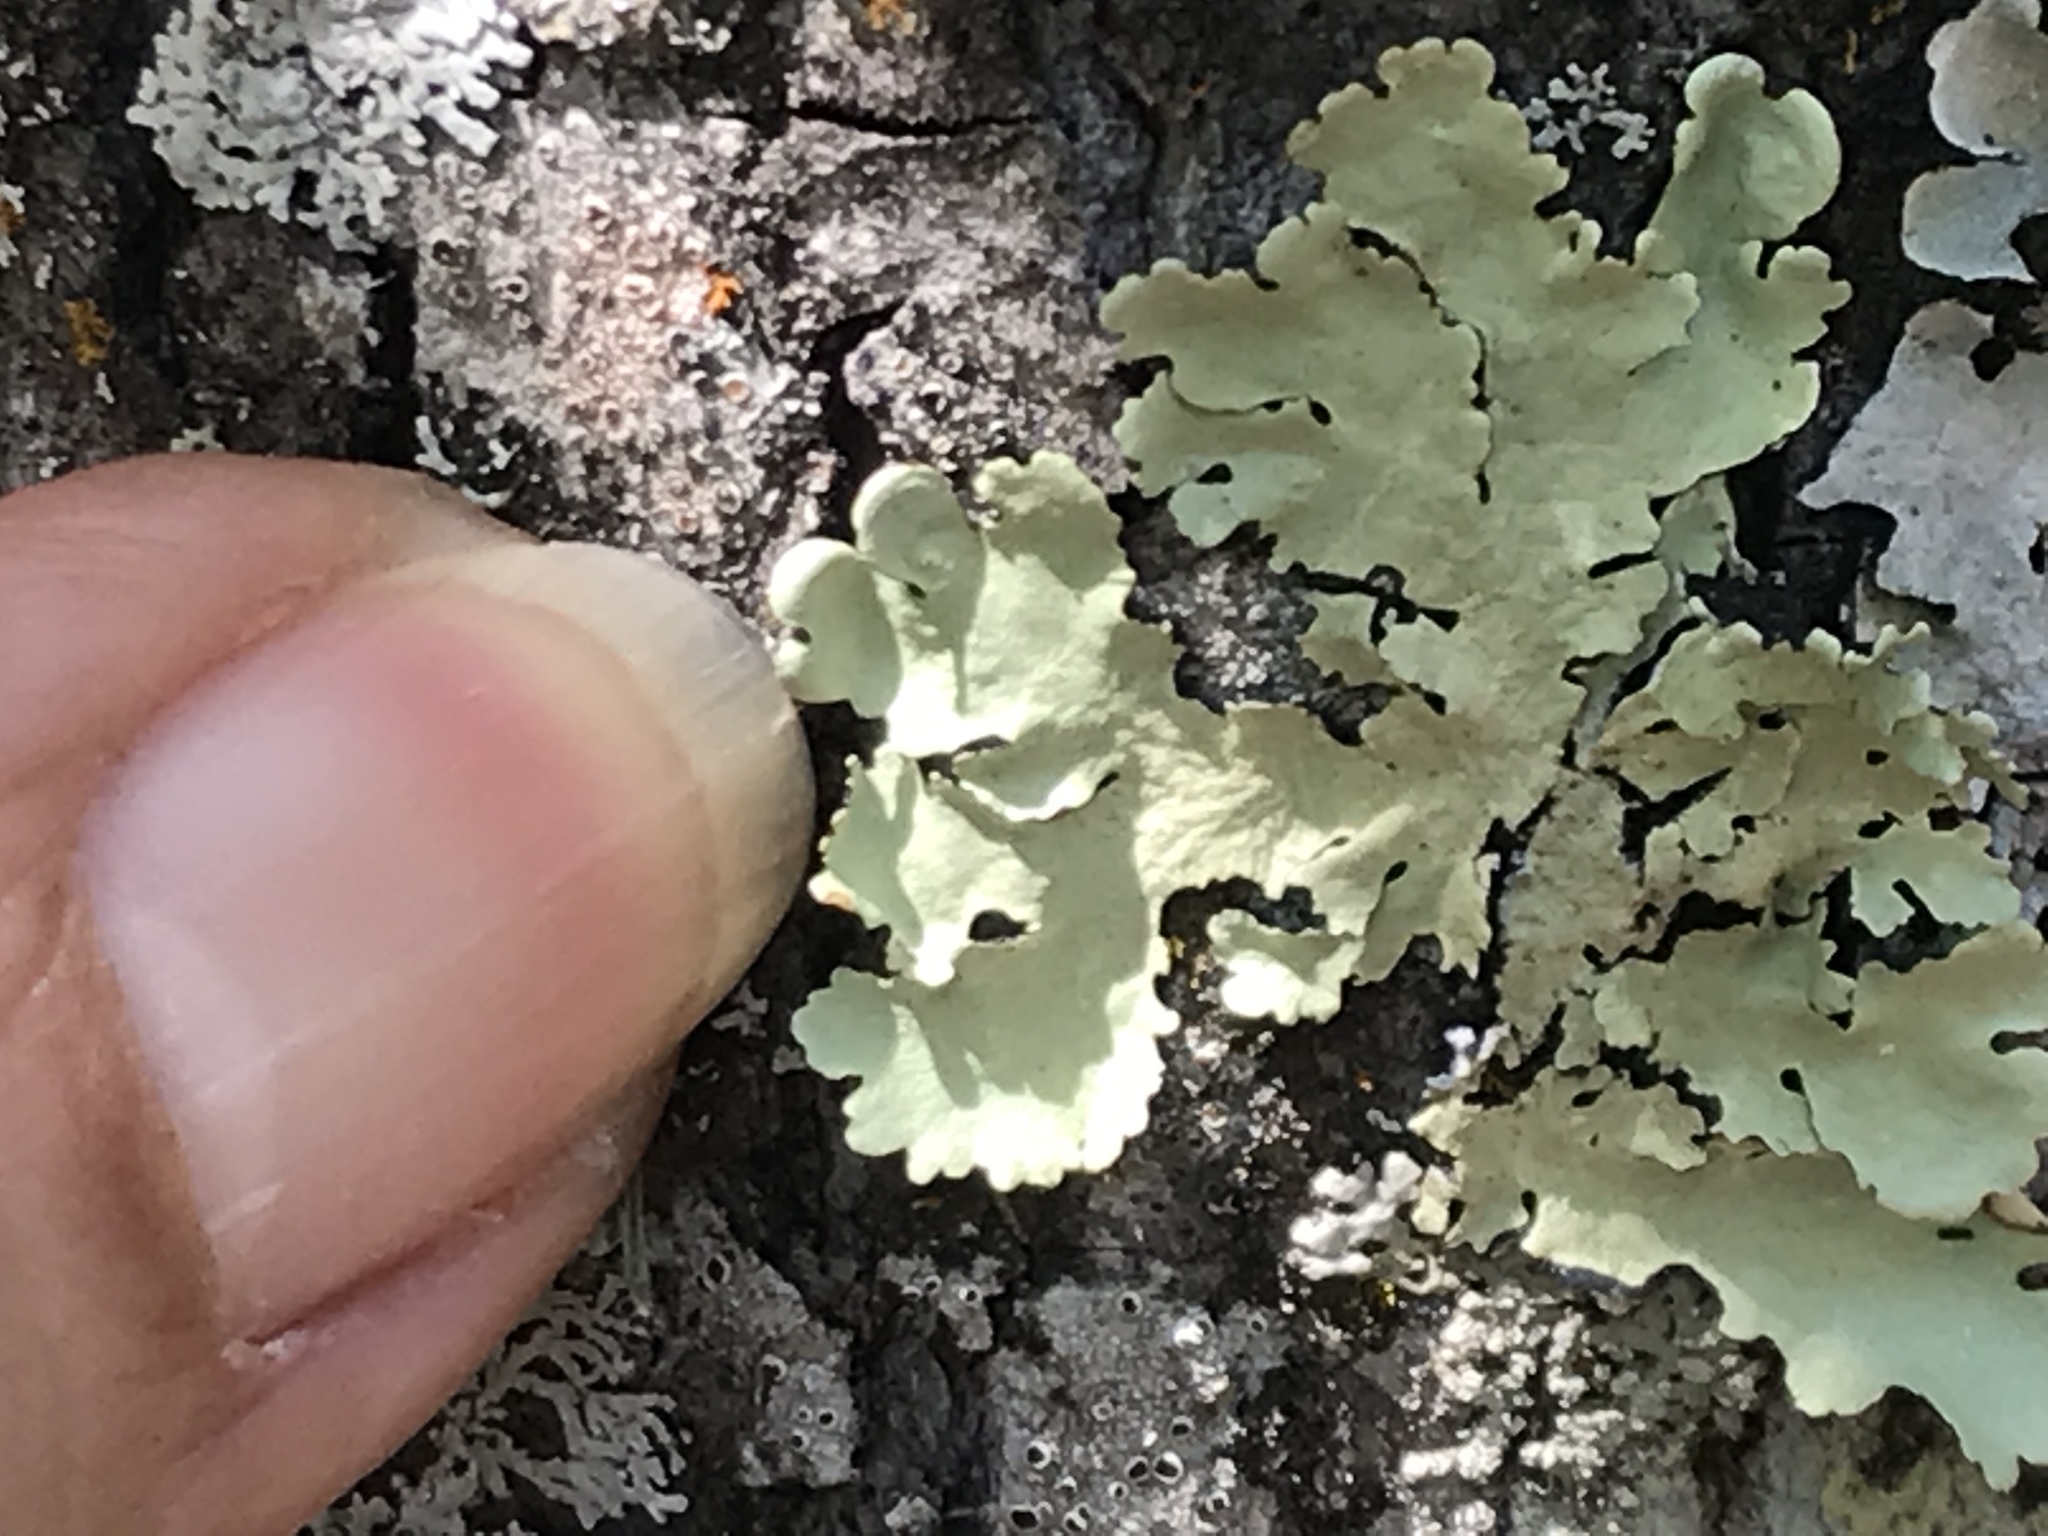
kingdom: Fungi
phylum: Ascomycota
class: Lecanoromycetes
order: Lecanorales
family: Parmeliaceae
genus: Flavoparmelia
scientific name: Flavoparmelia caperata
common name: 40-mile per hour lichen
